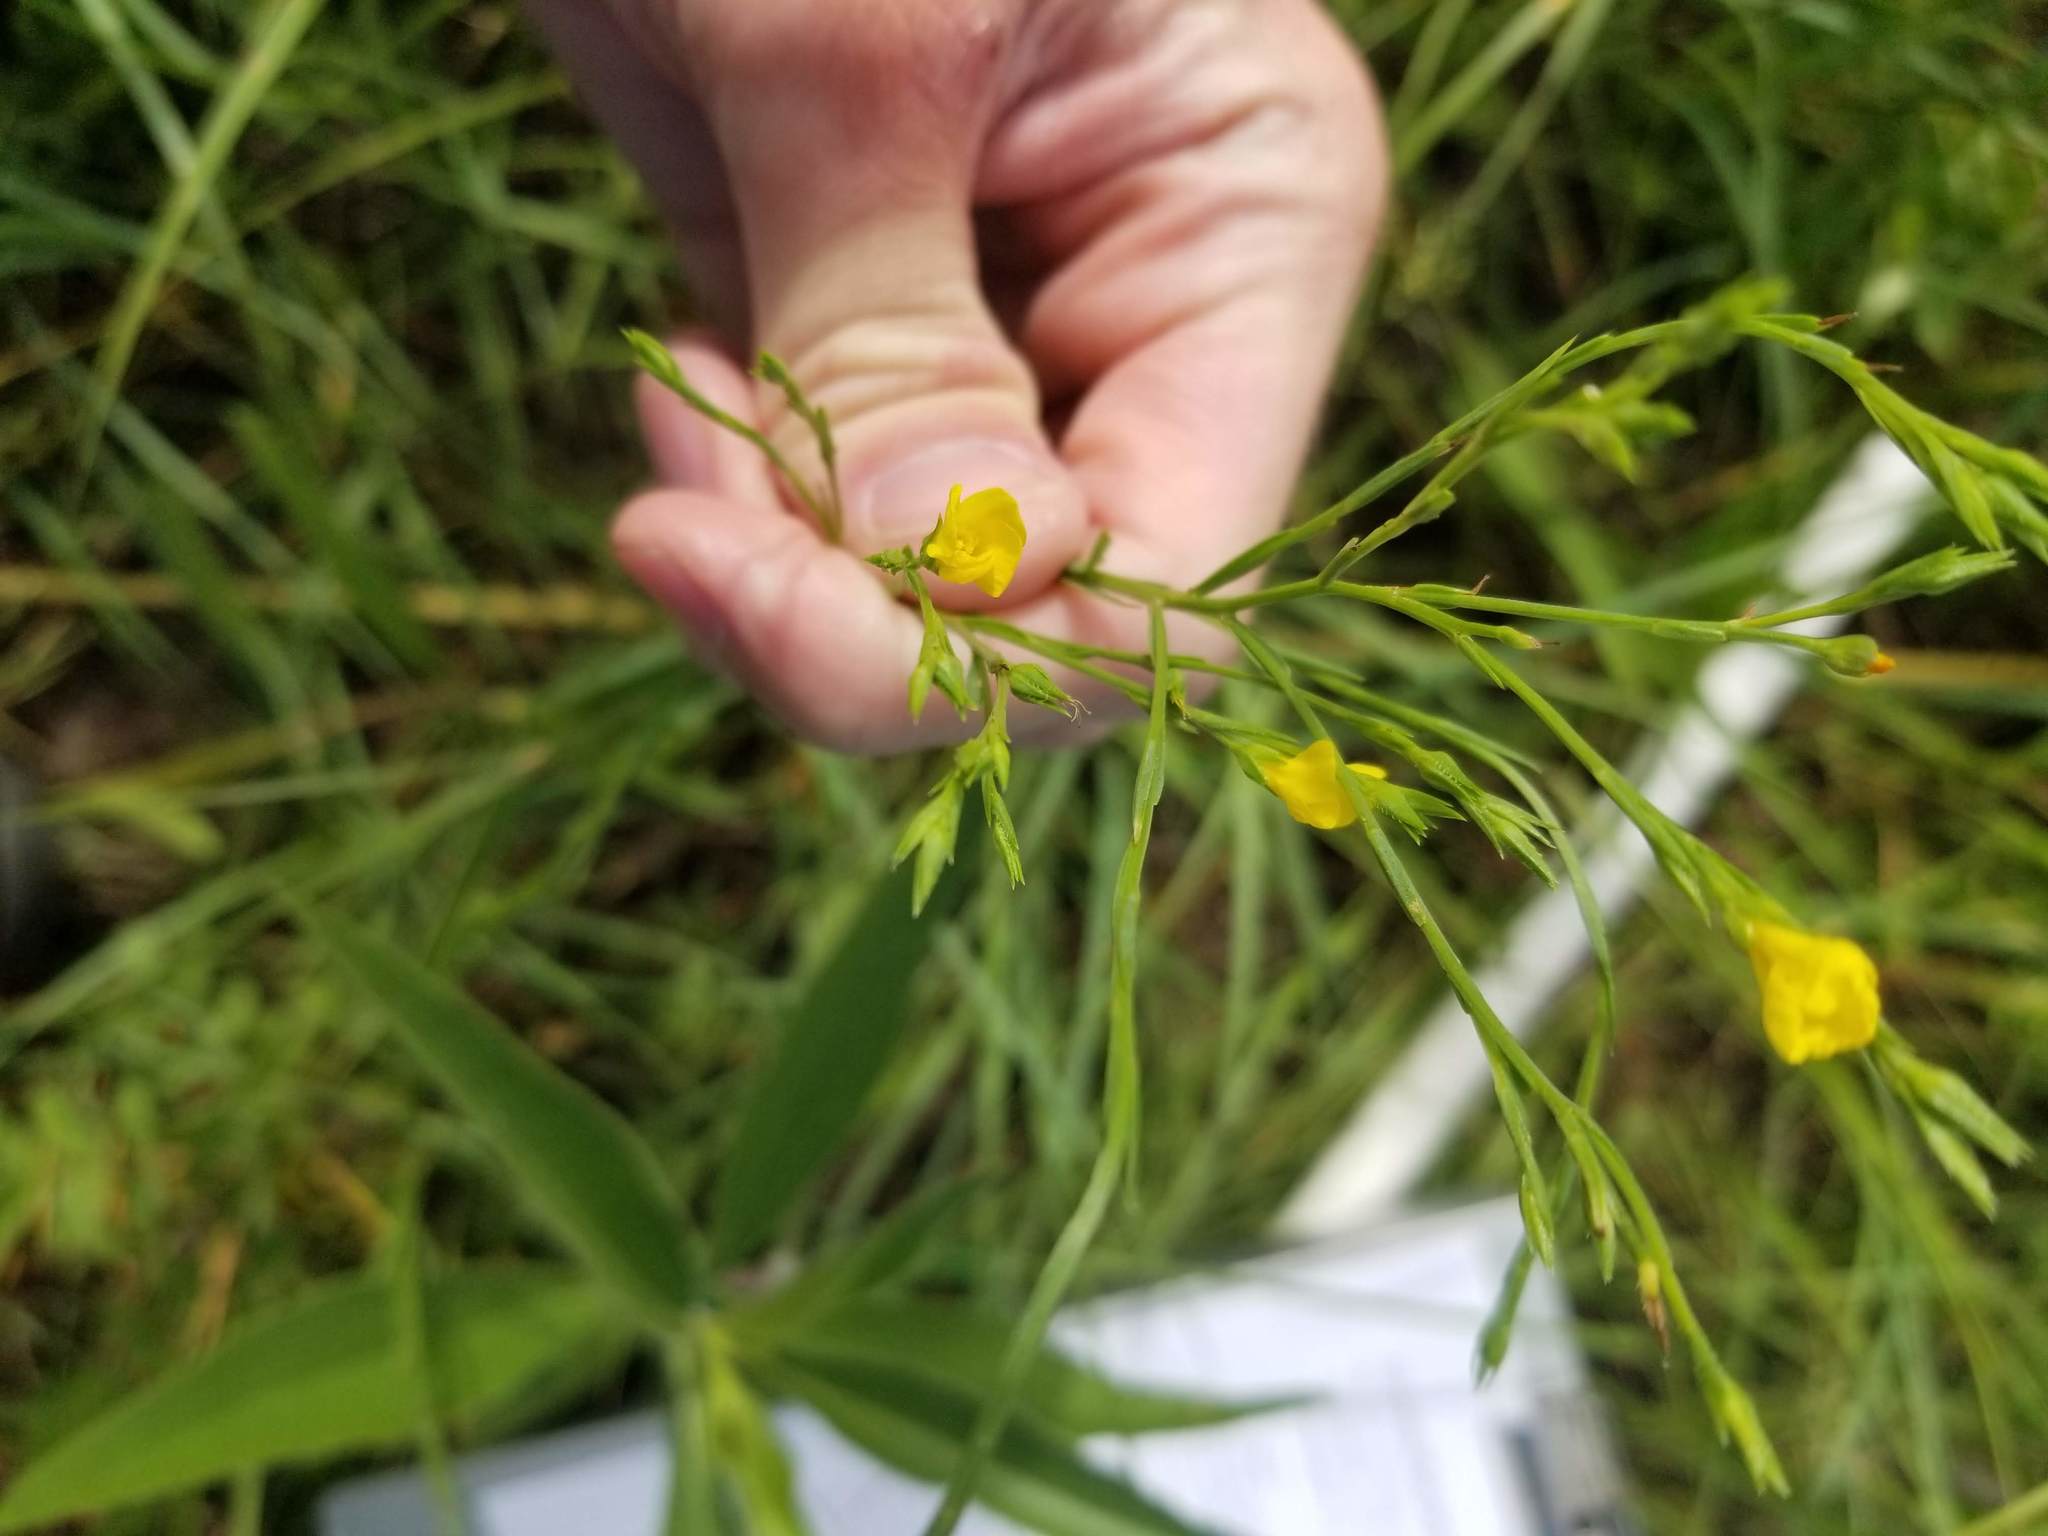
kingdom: Plantae
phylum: Tracheophyta
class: Magnoliopsida
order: Malpighiales
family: Linaceae
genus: Linum
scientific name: Linum sulcatum
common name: Grooved flax
